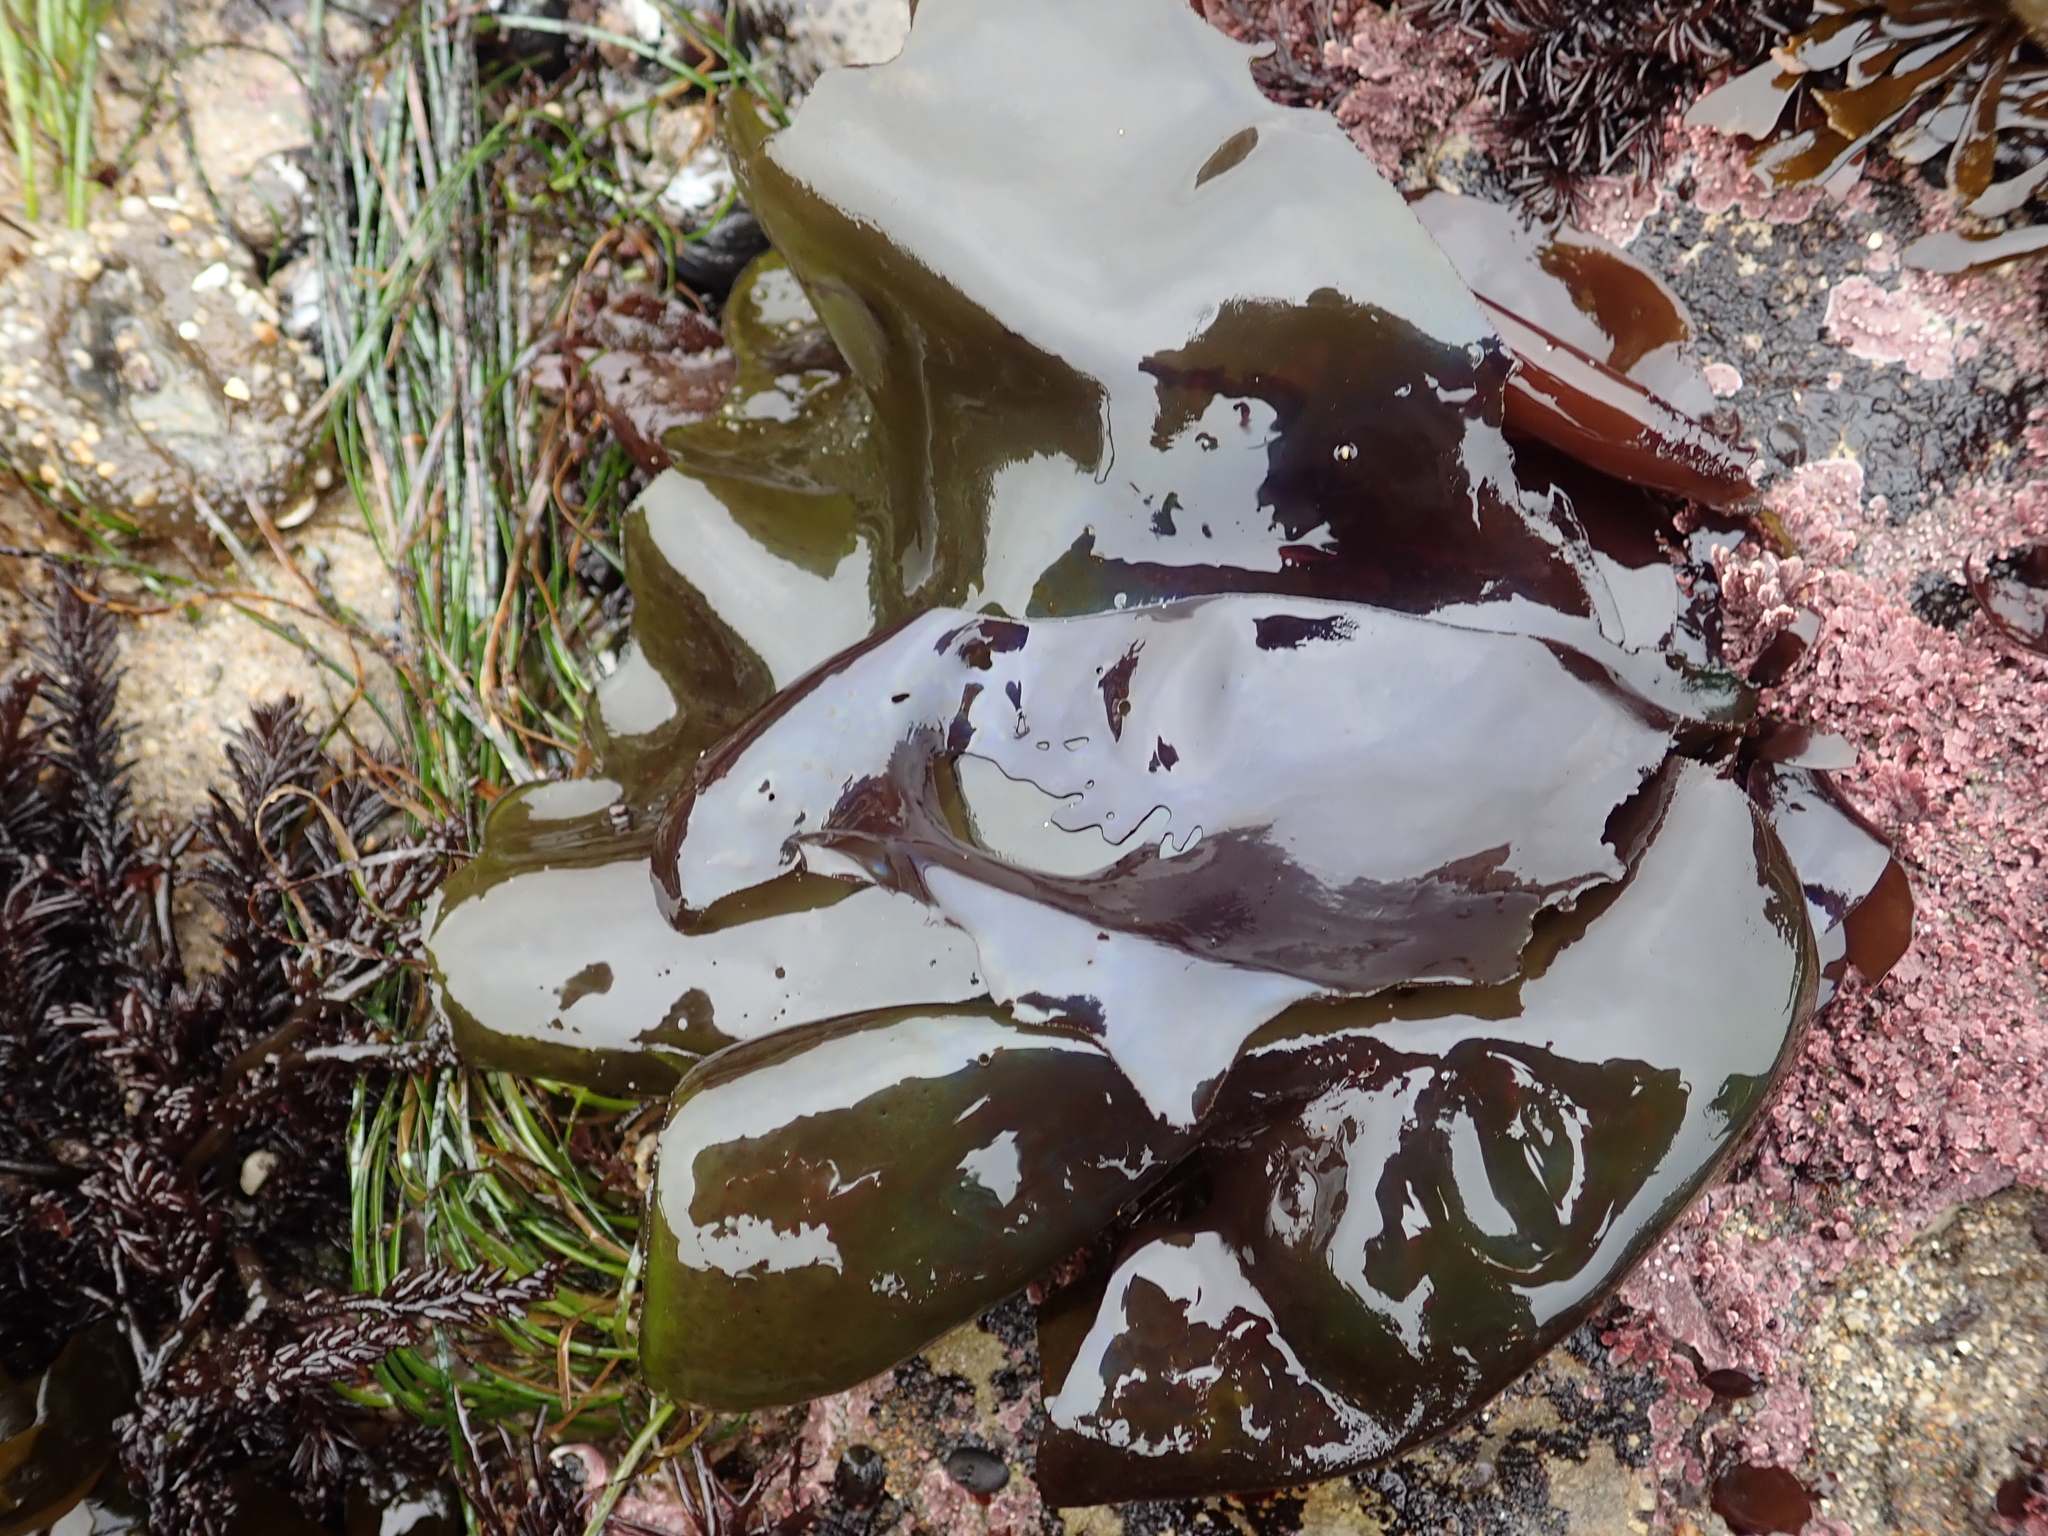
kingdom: Plantae
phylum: Rhodophyta
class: Florideophyceae
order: Gigartinales
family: Gigartinaceae
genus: Mazzaella
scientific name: Mazzaella flaccida
